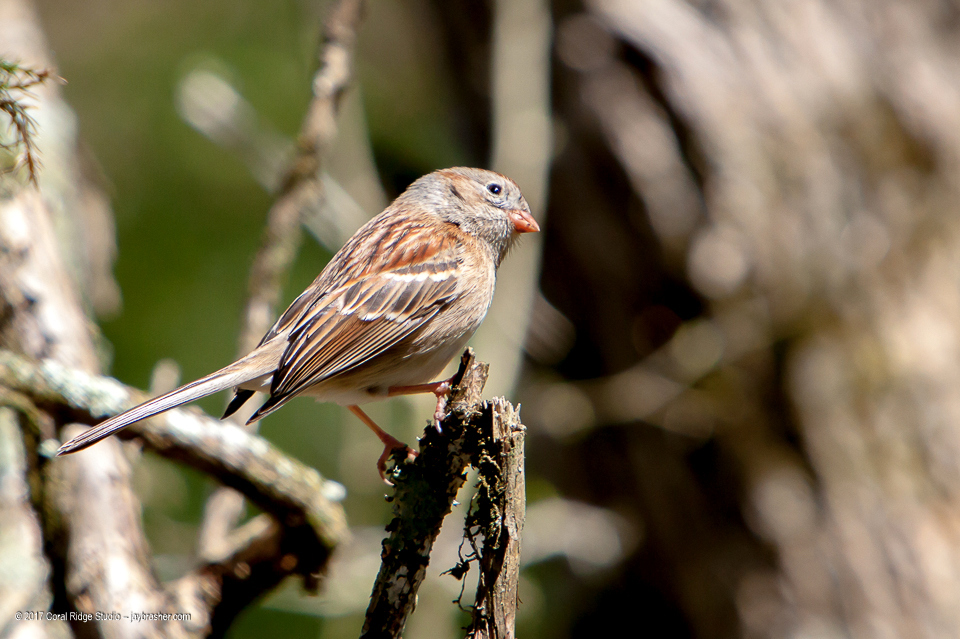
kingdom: Animalia
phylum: Chordata
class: Aves
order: Passeriformes
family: Passerellidae
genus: Spizella
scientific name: Spizella pusilla
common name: Field sparrow
